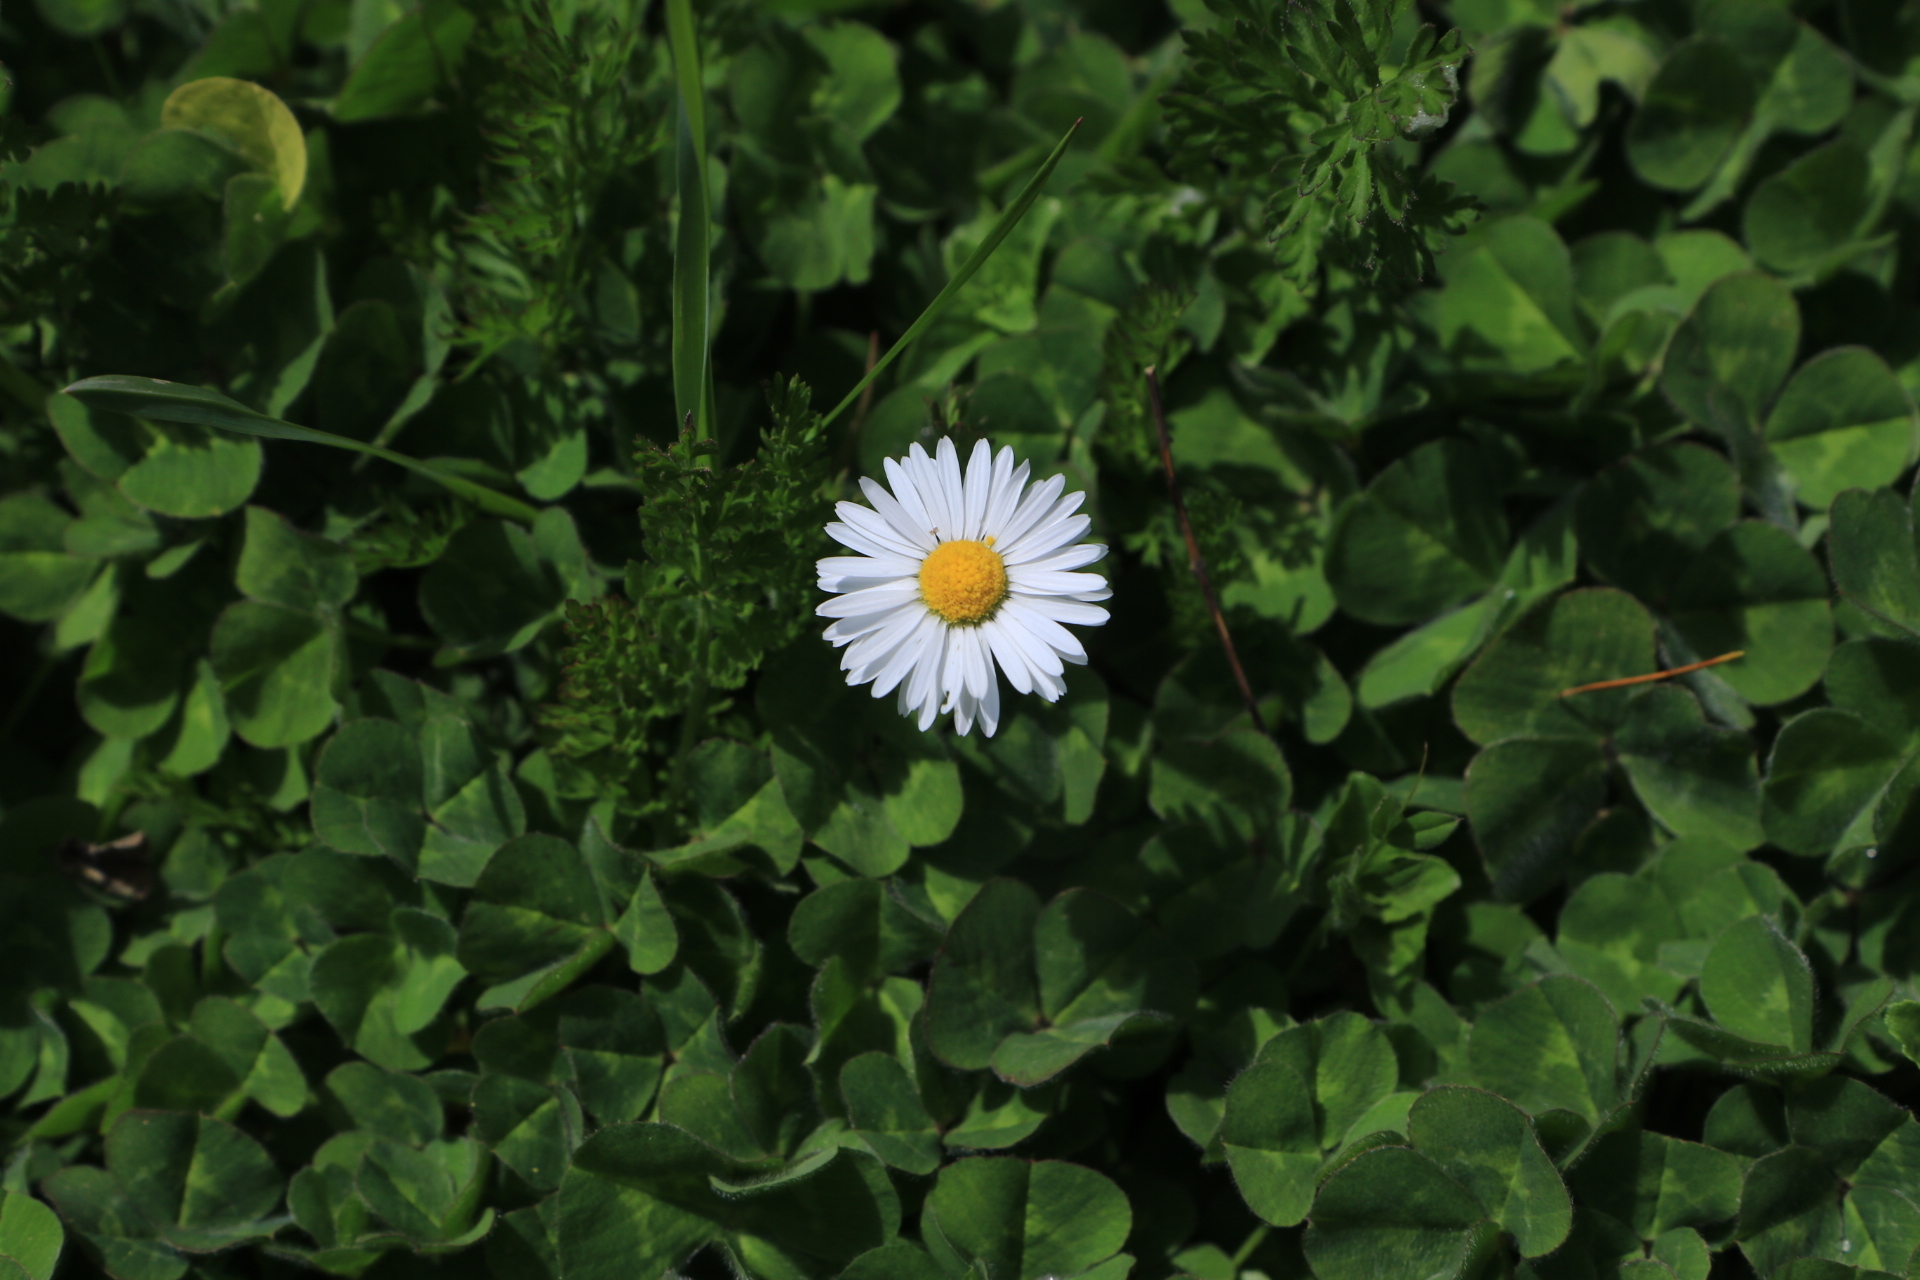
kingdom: Plantae
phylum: Tracheophyta
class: Magnoliopsida
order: Asterales
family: Asteraceae
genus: Bellis
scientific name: Bellis perennis
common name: Lawndaisy
